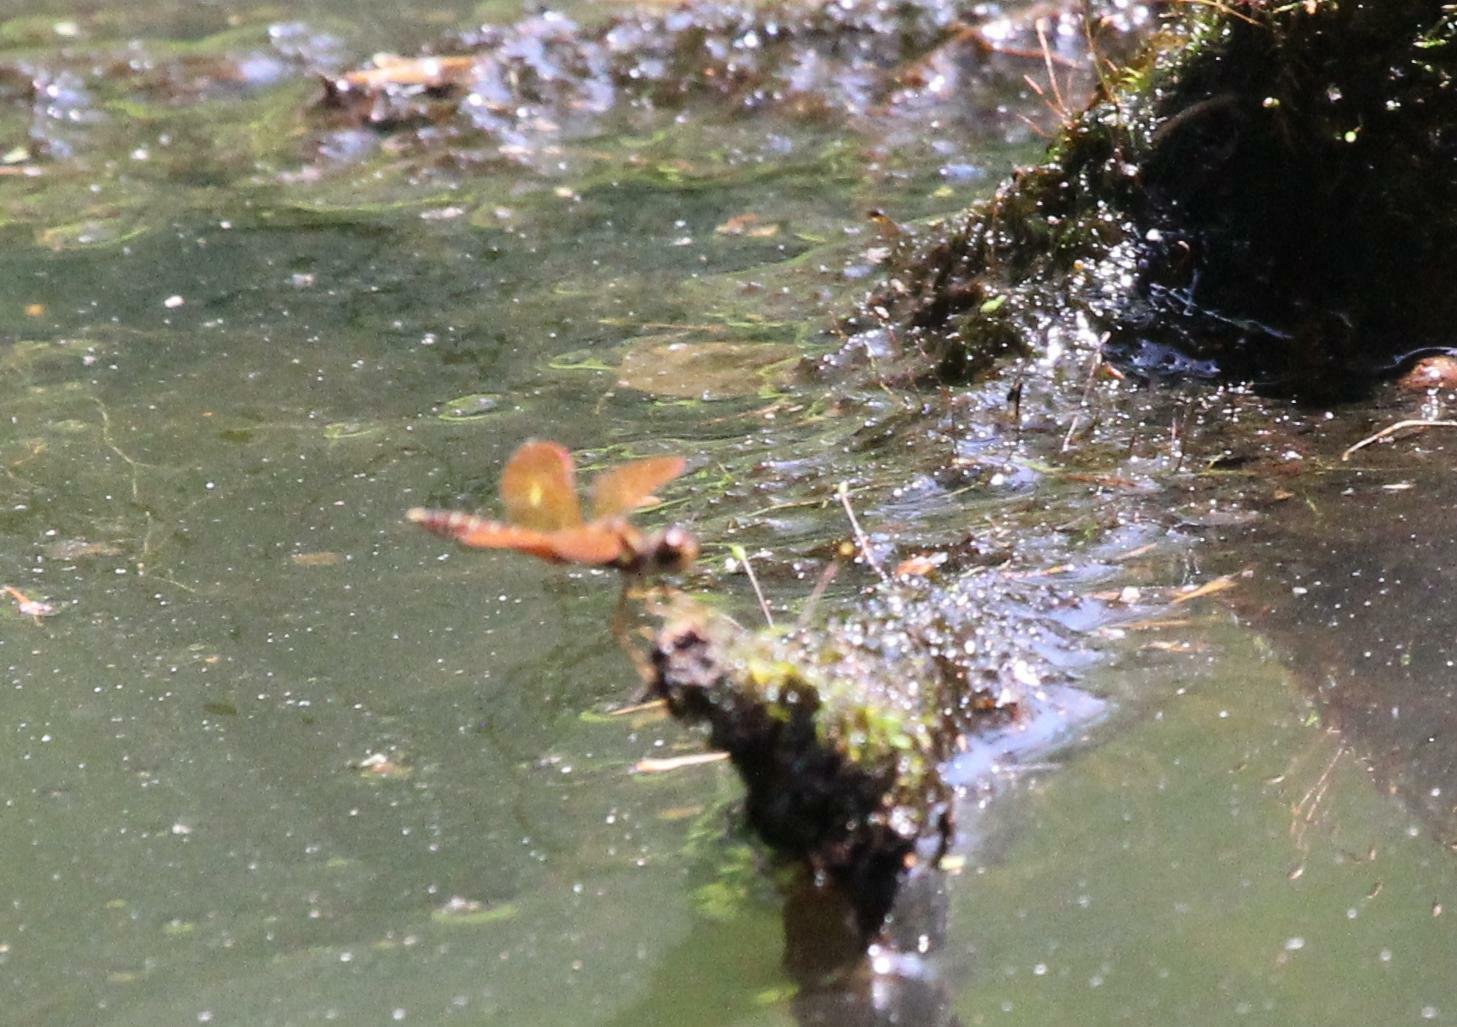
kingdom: Animalia
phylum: Arthropoda
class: Insecta
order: Odonata
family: Libellulidae
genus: Perithemis
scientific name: Perithemis tenera
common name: Eastern amberwing
